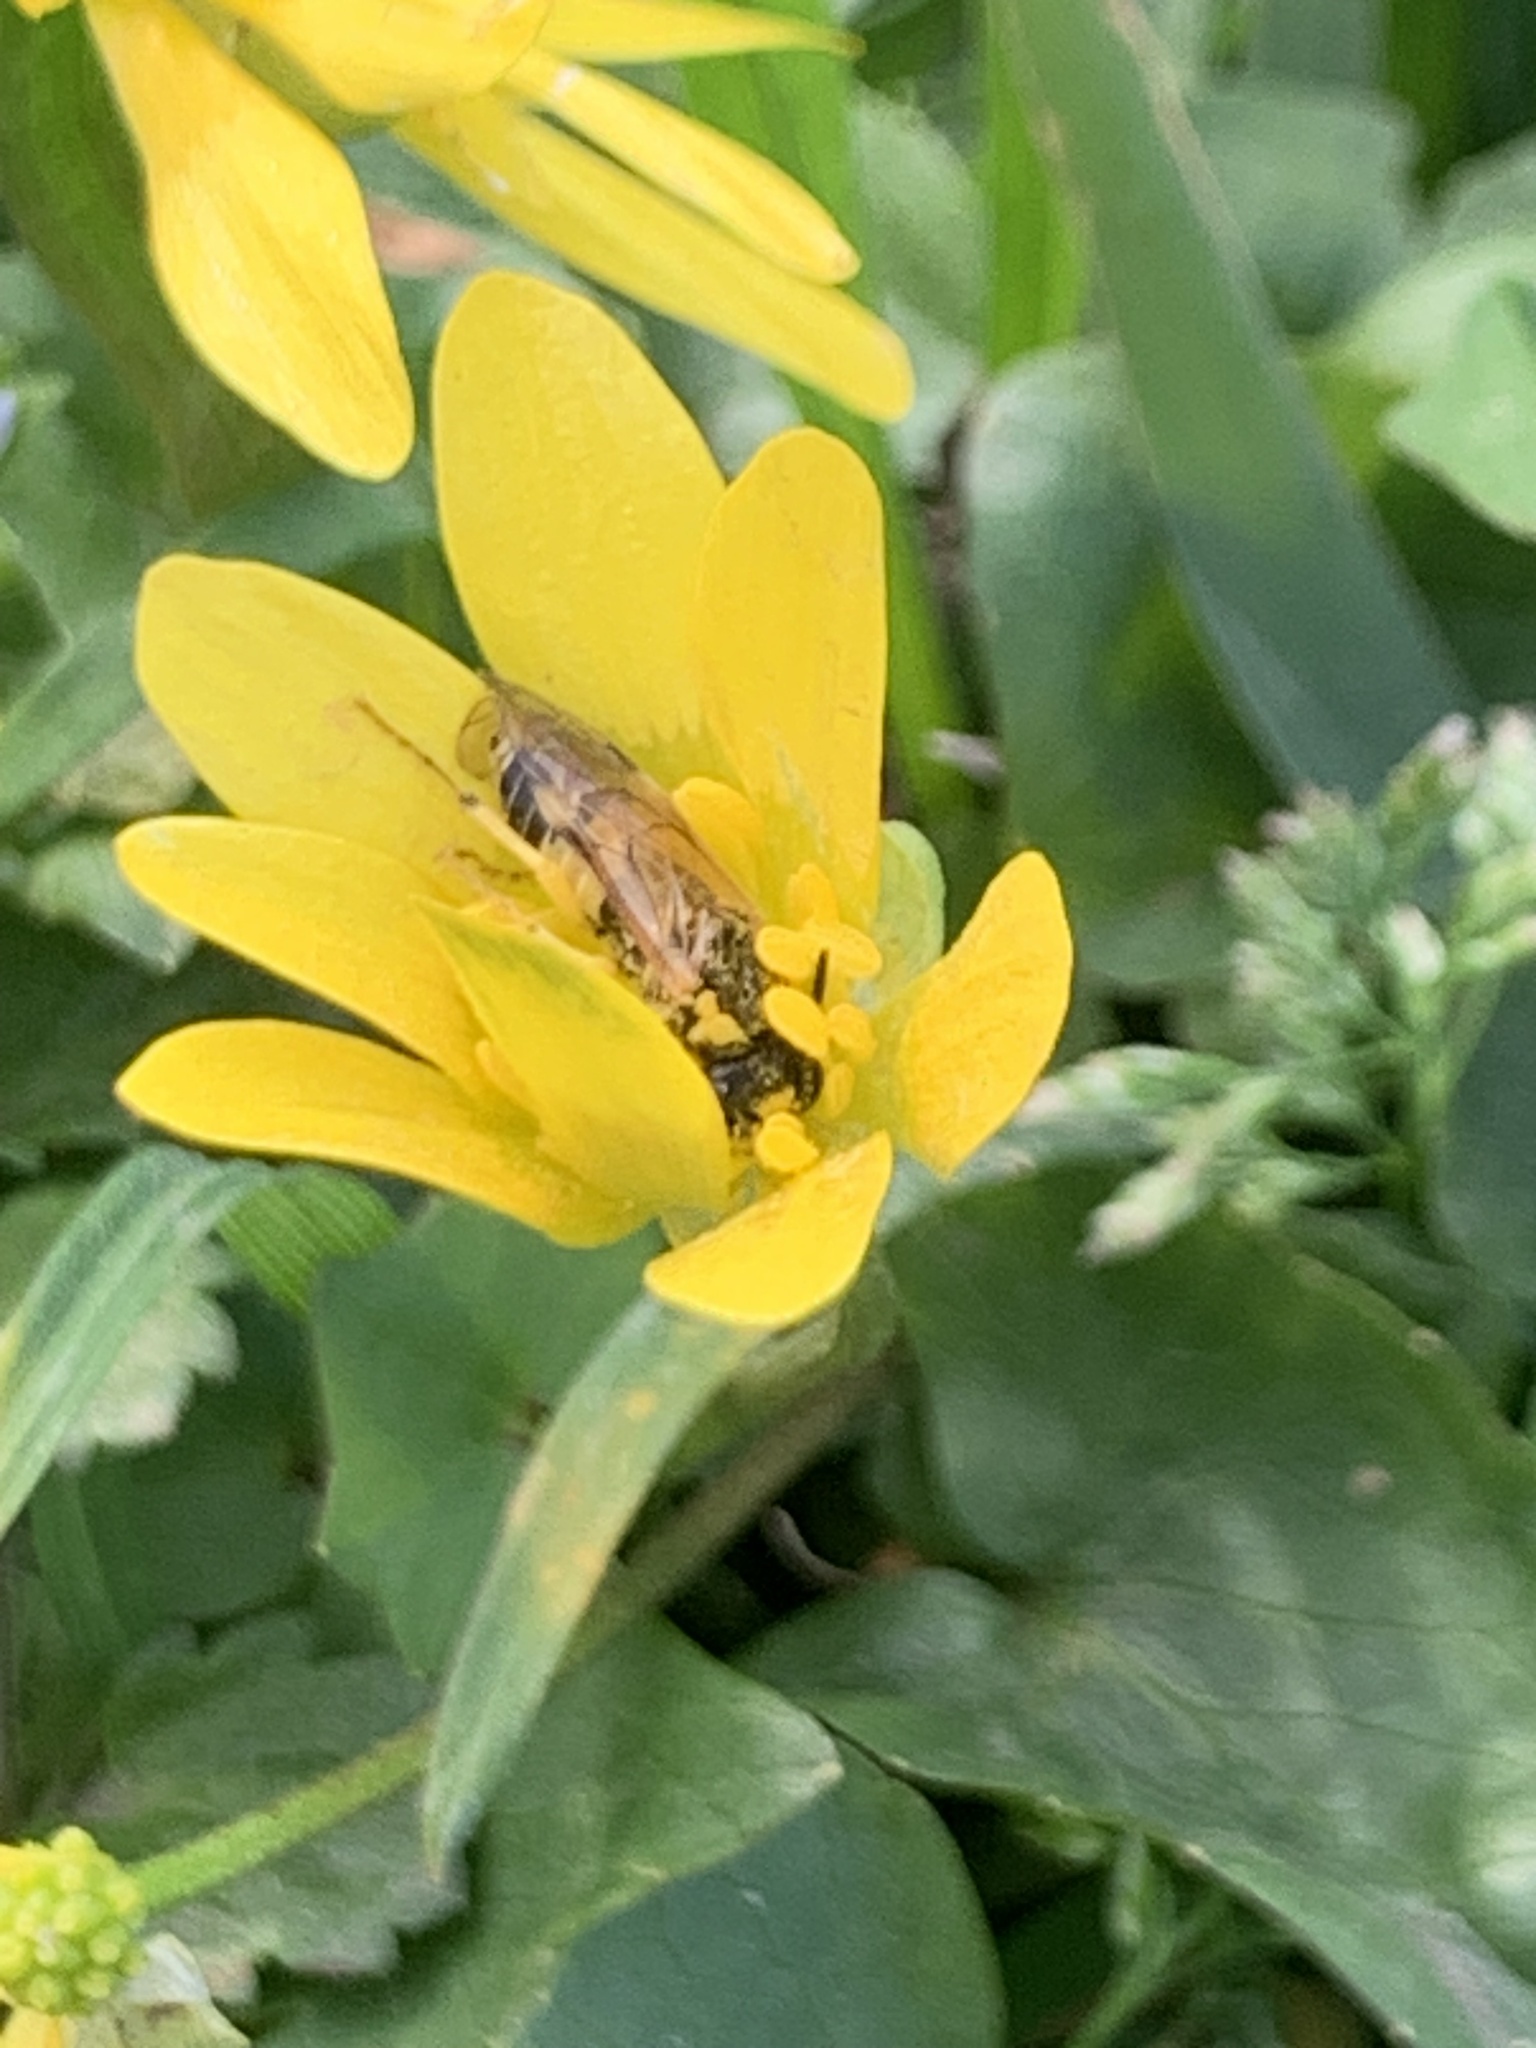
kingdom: Animalia
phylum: Arthropoda
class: Insecta
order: Hymenoptera
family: Tenthredinidae
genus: Tenthredo
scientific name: Tenthredo talyshensis
